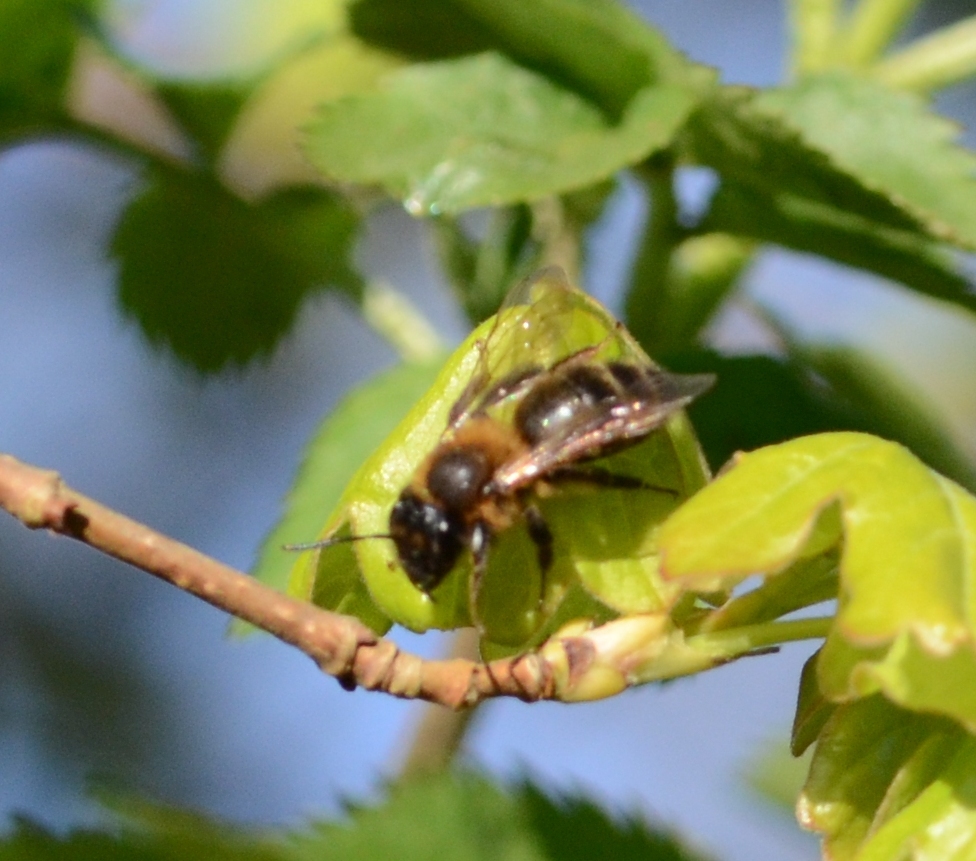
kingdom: Animalia
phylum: Arthropoda
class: Insecta
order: Hymenoptera
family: Andrenidae
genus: Andrena
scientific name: Andrena carantonica
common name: Chocolate mining bee
